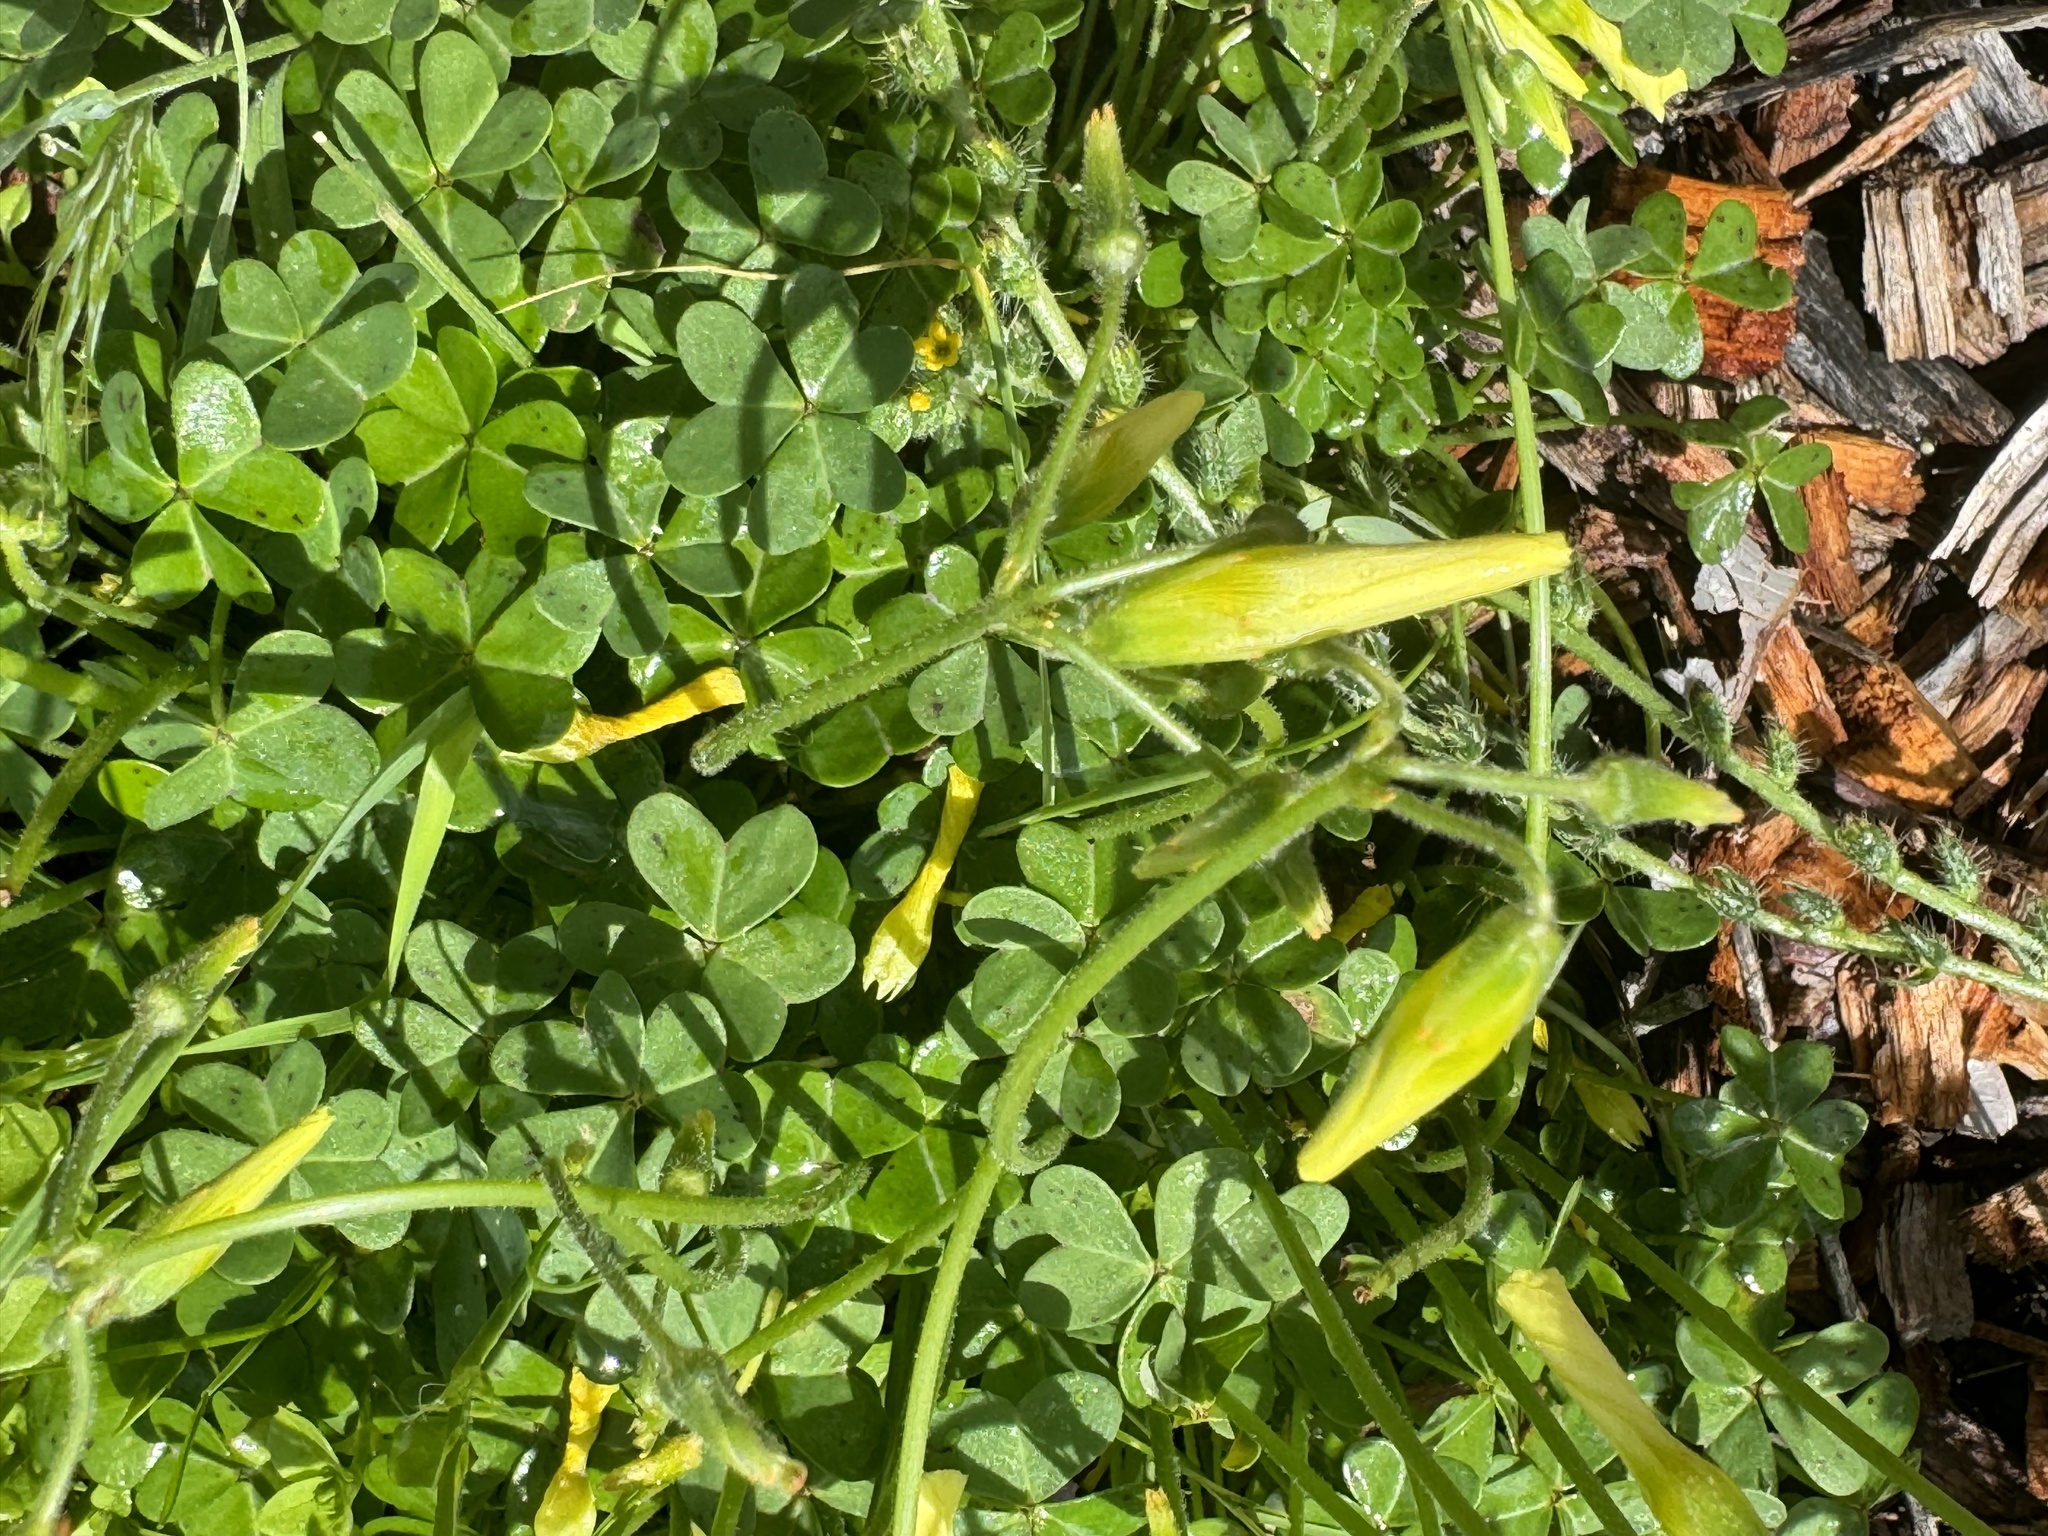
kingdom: Plantae
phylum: Tracheophyta
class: Magnoliopsida
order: Oxalidales
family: Oxalidaceae
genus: Oxalis
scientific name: Oxalis pes-caprae
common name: Bermuda-buttercup
